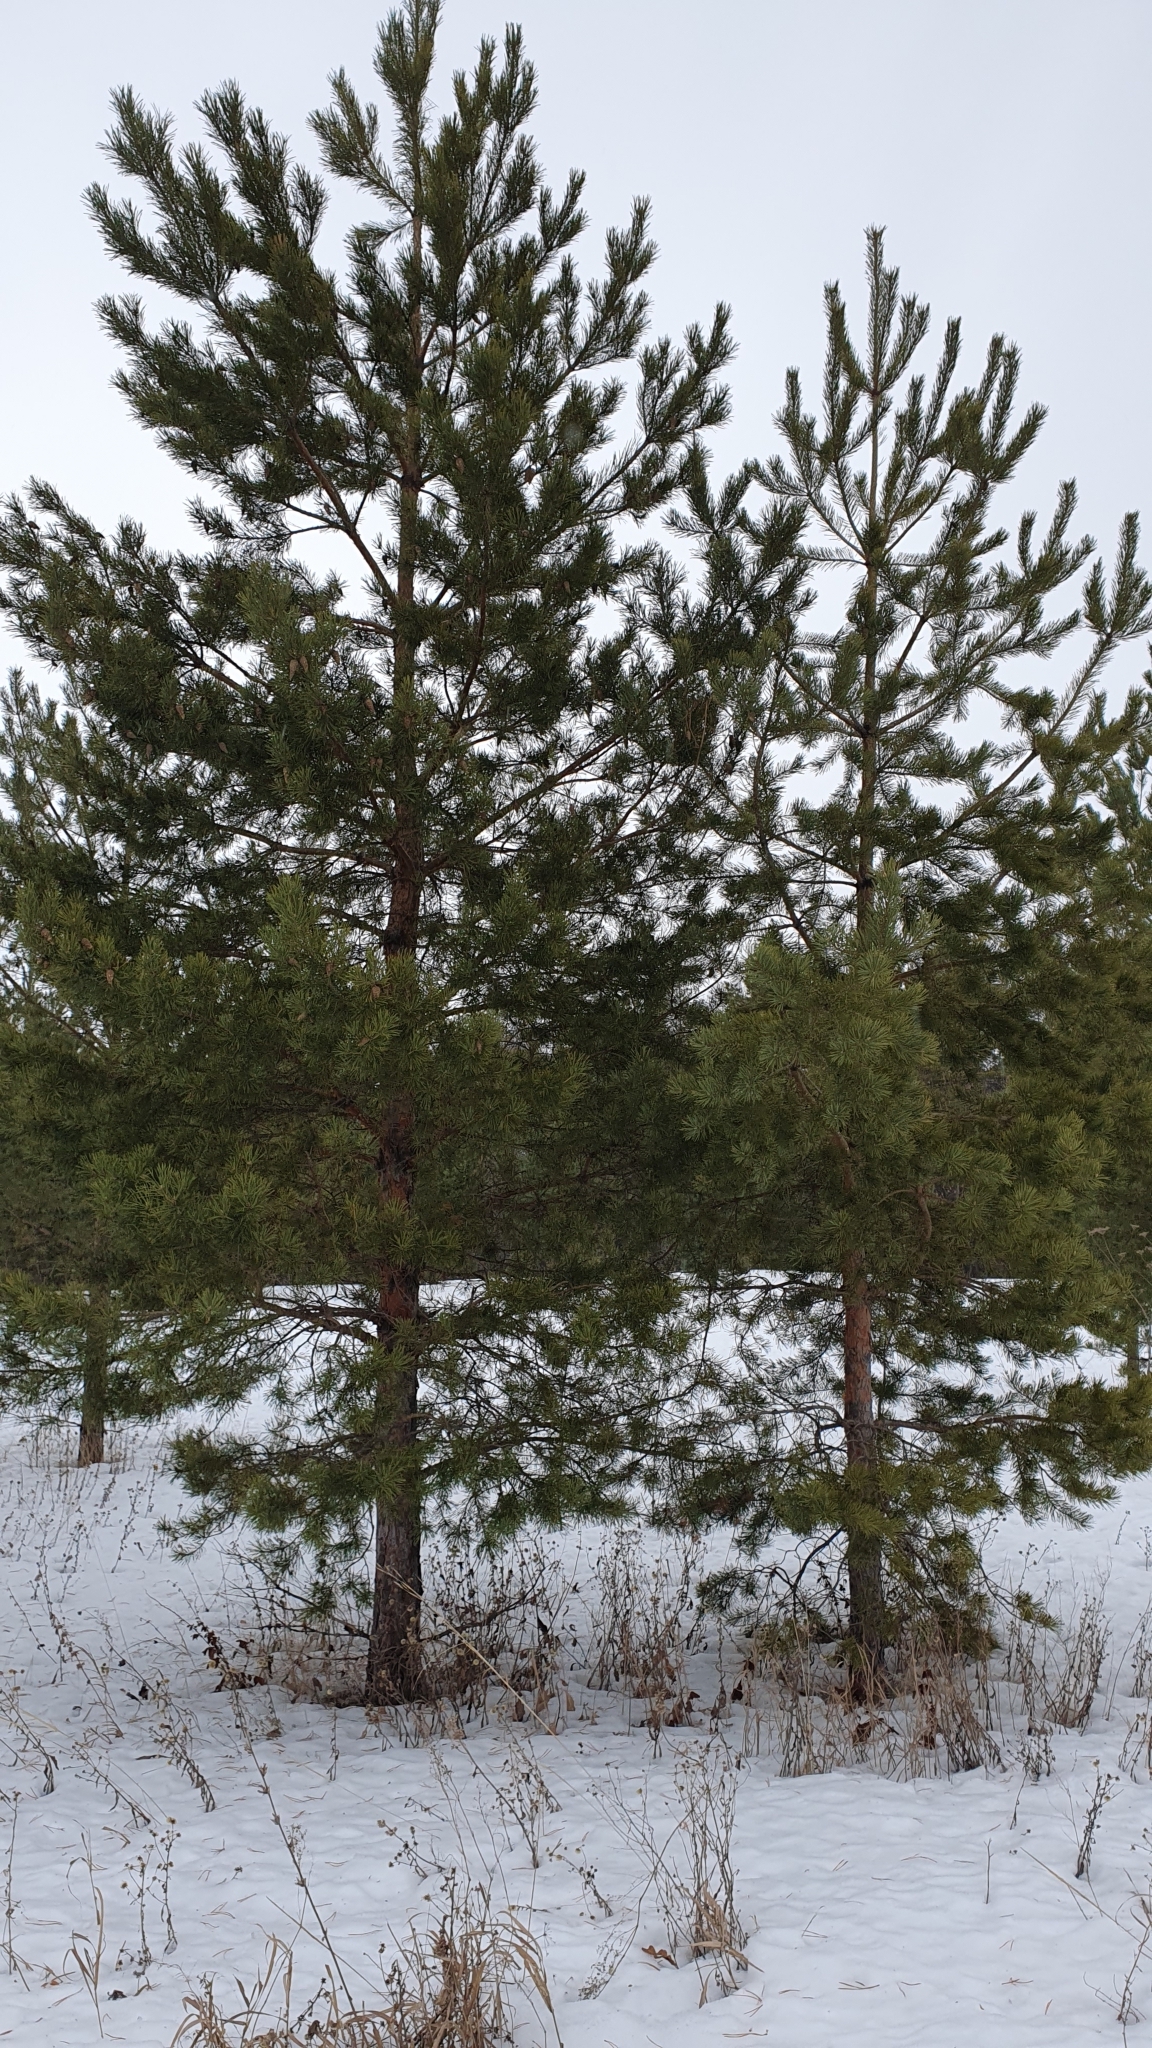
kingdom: Plantae
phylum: Tracheophyta
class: Pinopsida
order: Pinales
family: Pinaceae
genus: Pinus
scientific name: Pinus sylvestris
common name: Scots pine
